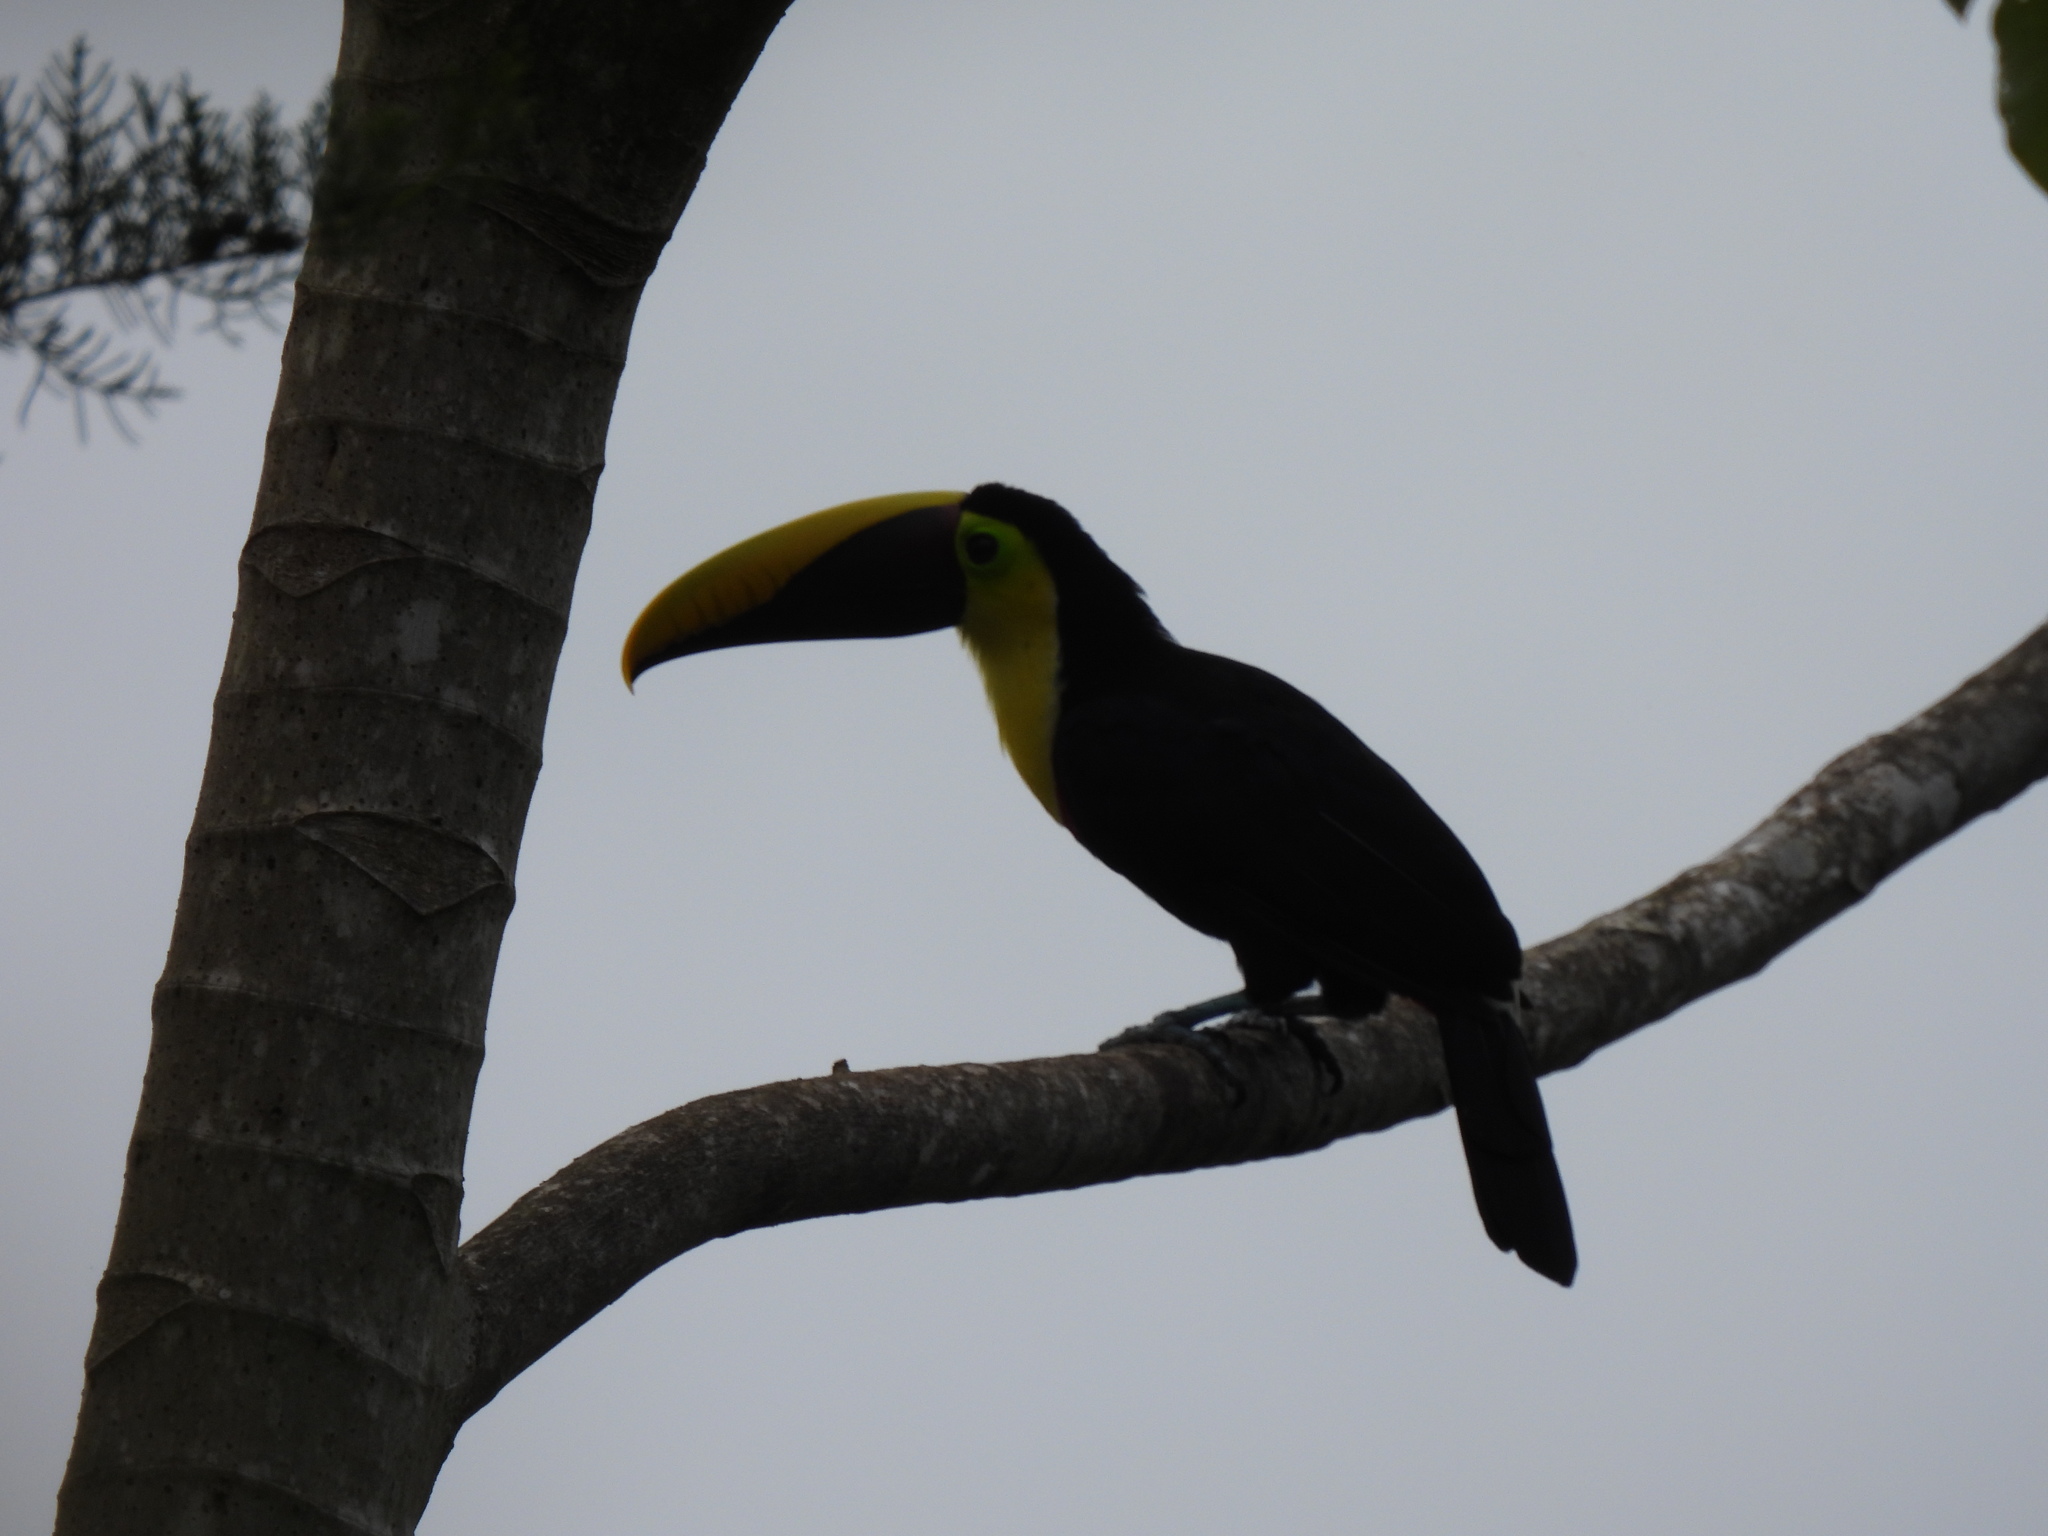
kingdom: Animalia
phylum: Chordata
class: Aves
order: Piciformes
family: Ramphastidae
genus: Ramphastos
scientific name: Ramphastos ambiguus
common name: Yellow-throated toucan
